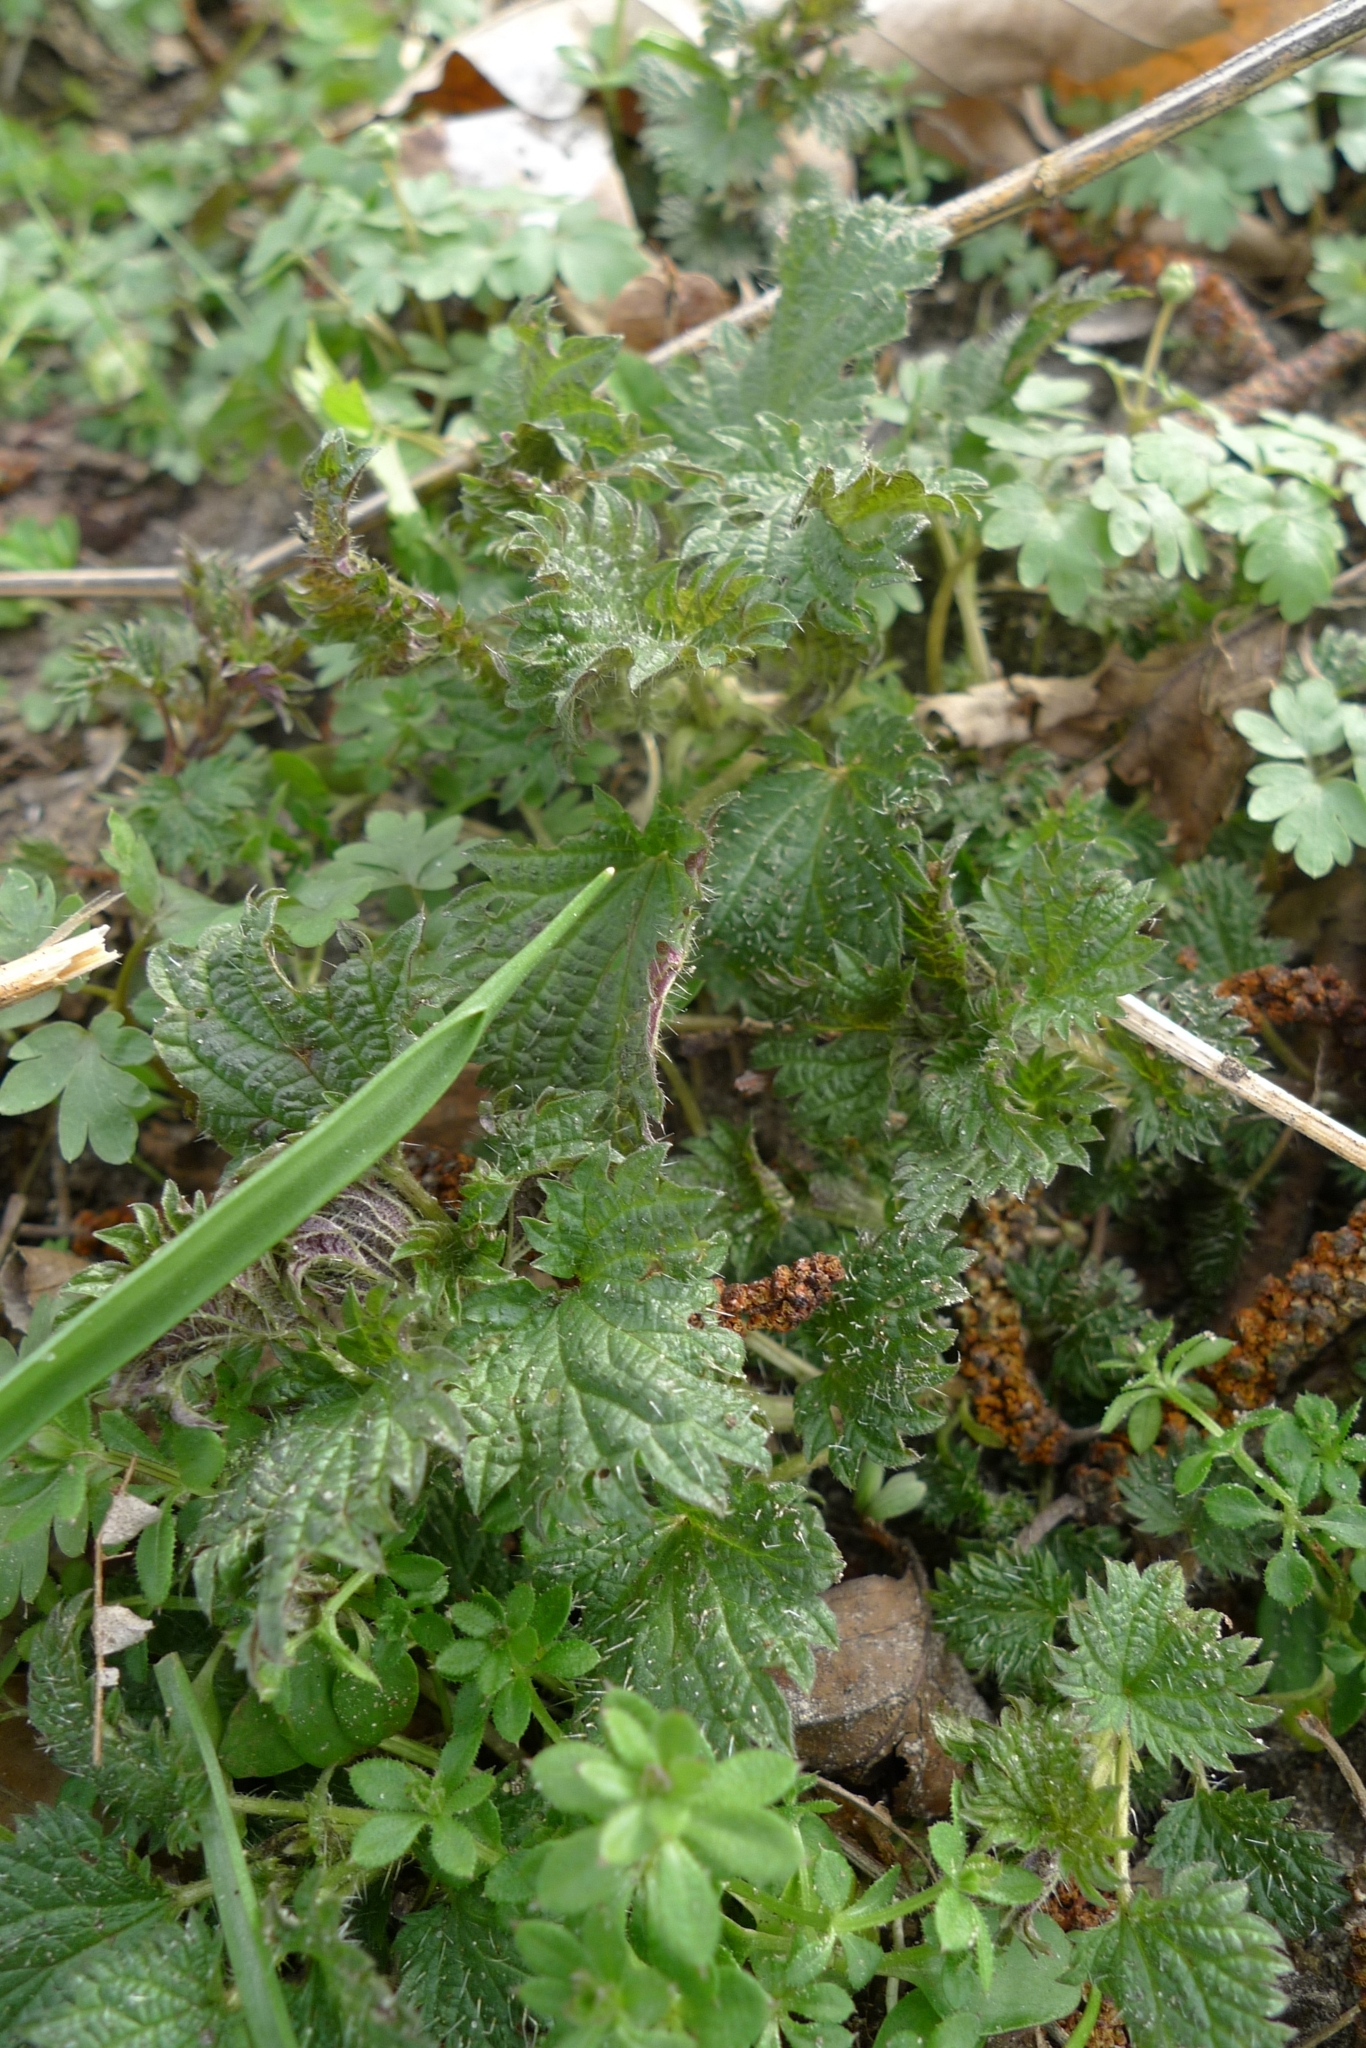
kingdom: Plantae
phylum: Tracheophyta
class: Magnoliopsida
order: Rosales
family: Urticaceae
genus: Urtica
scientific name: Urtica dioica
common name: Common nettle
